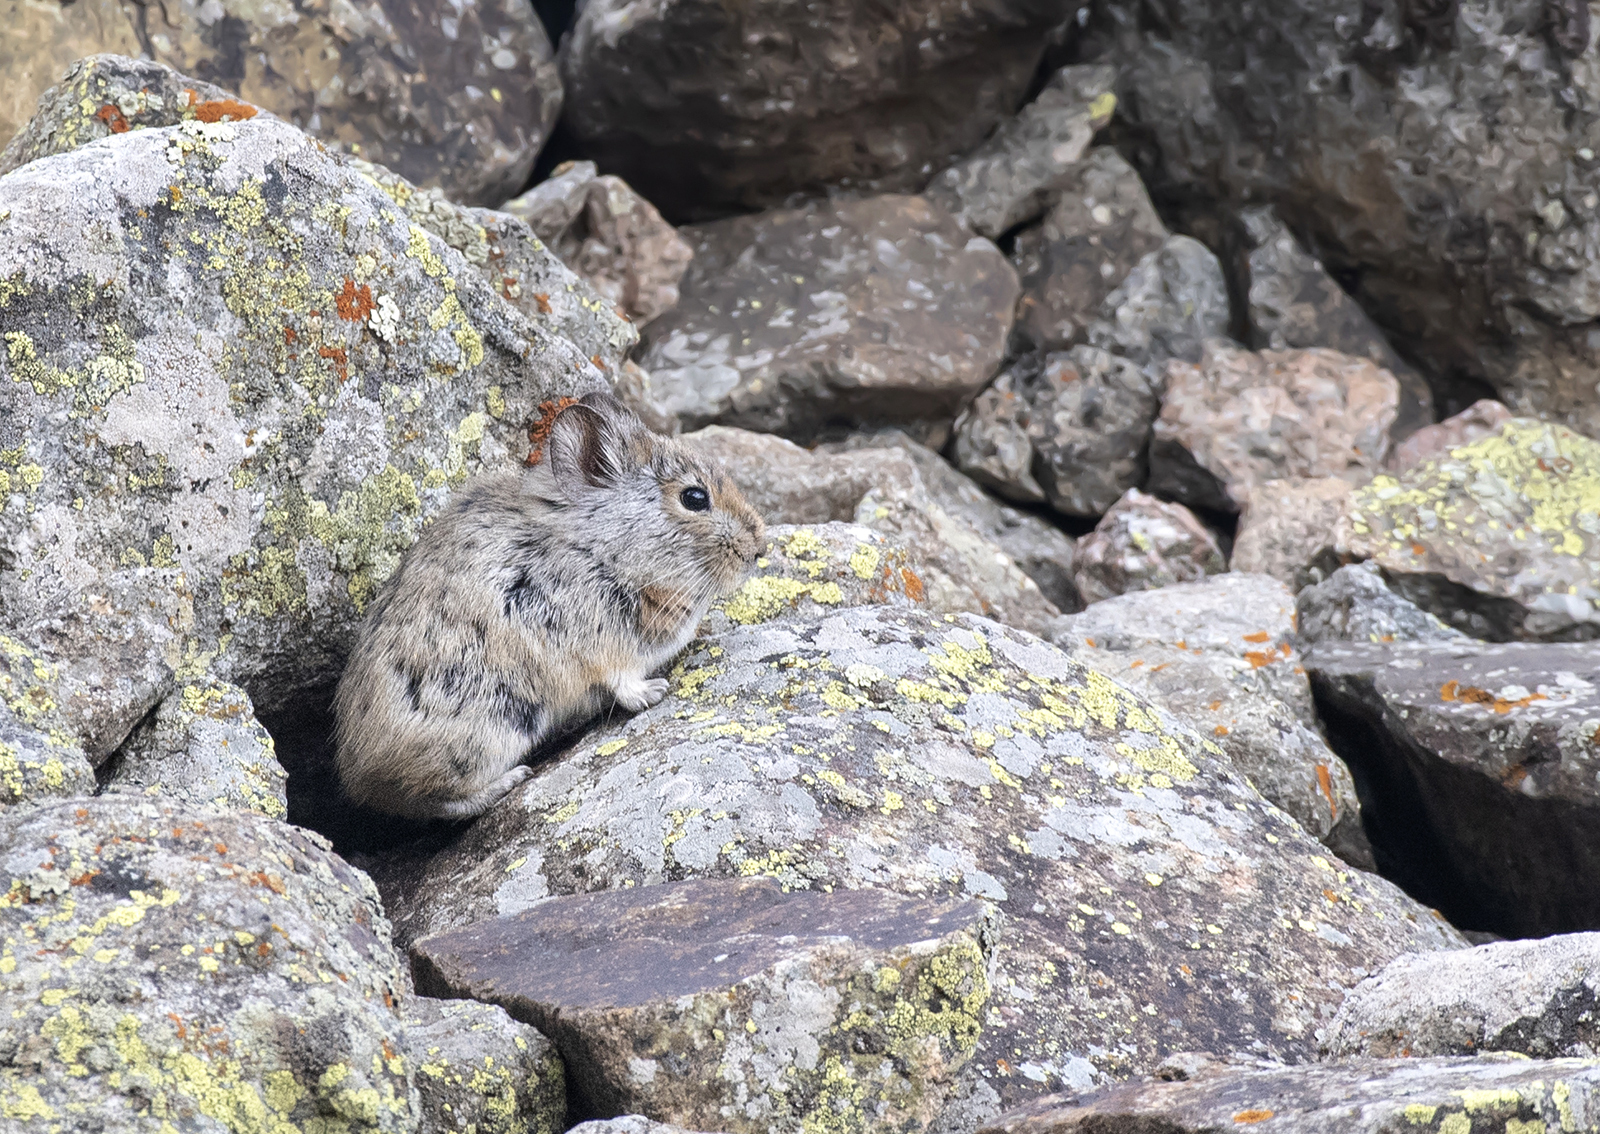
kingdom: Animalia
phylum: Chordata
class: Mammalia
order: Lagomorpha
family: Ochotonidae
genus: Ochotona
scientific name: Ochotona macrotis
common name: Large-eared pika
